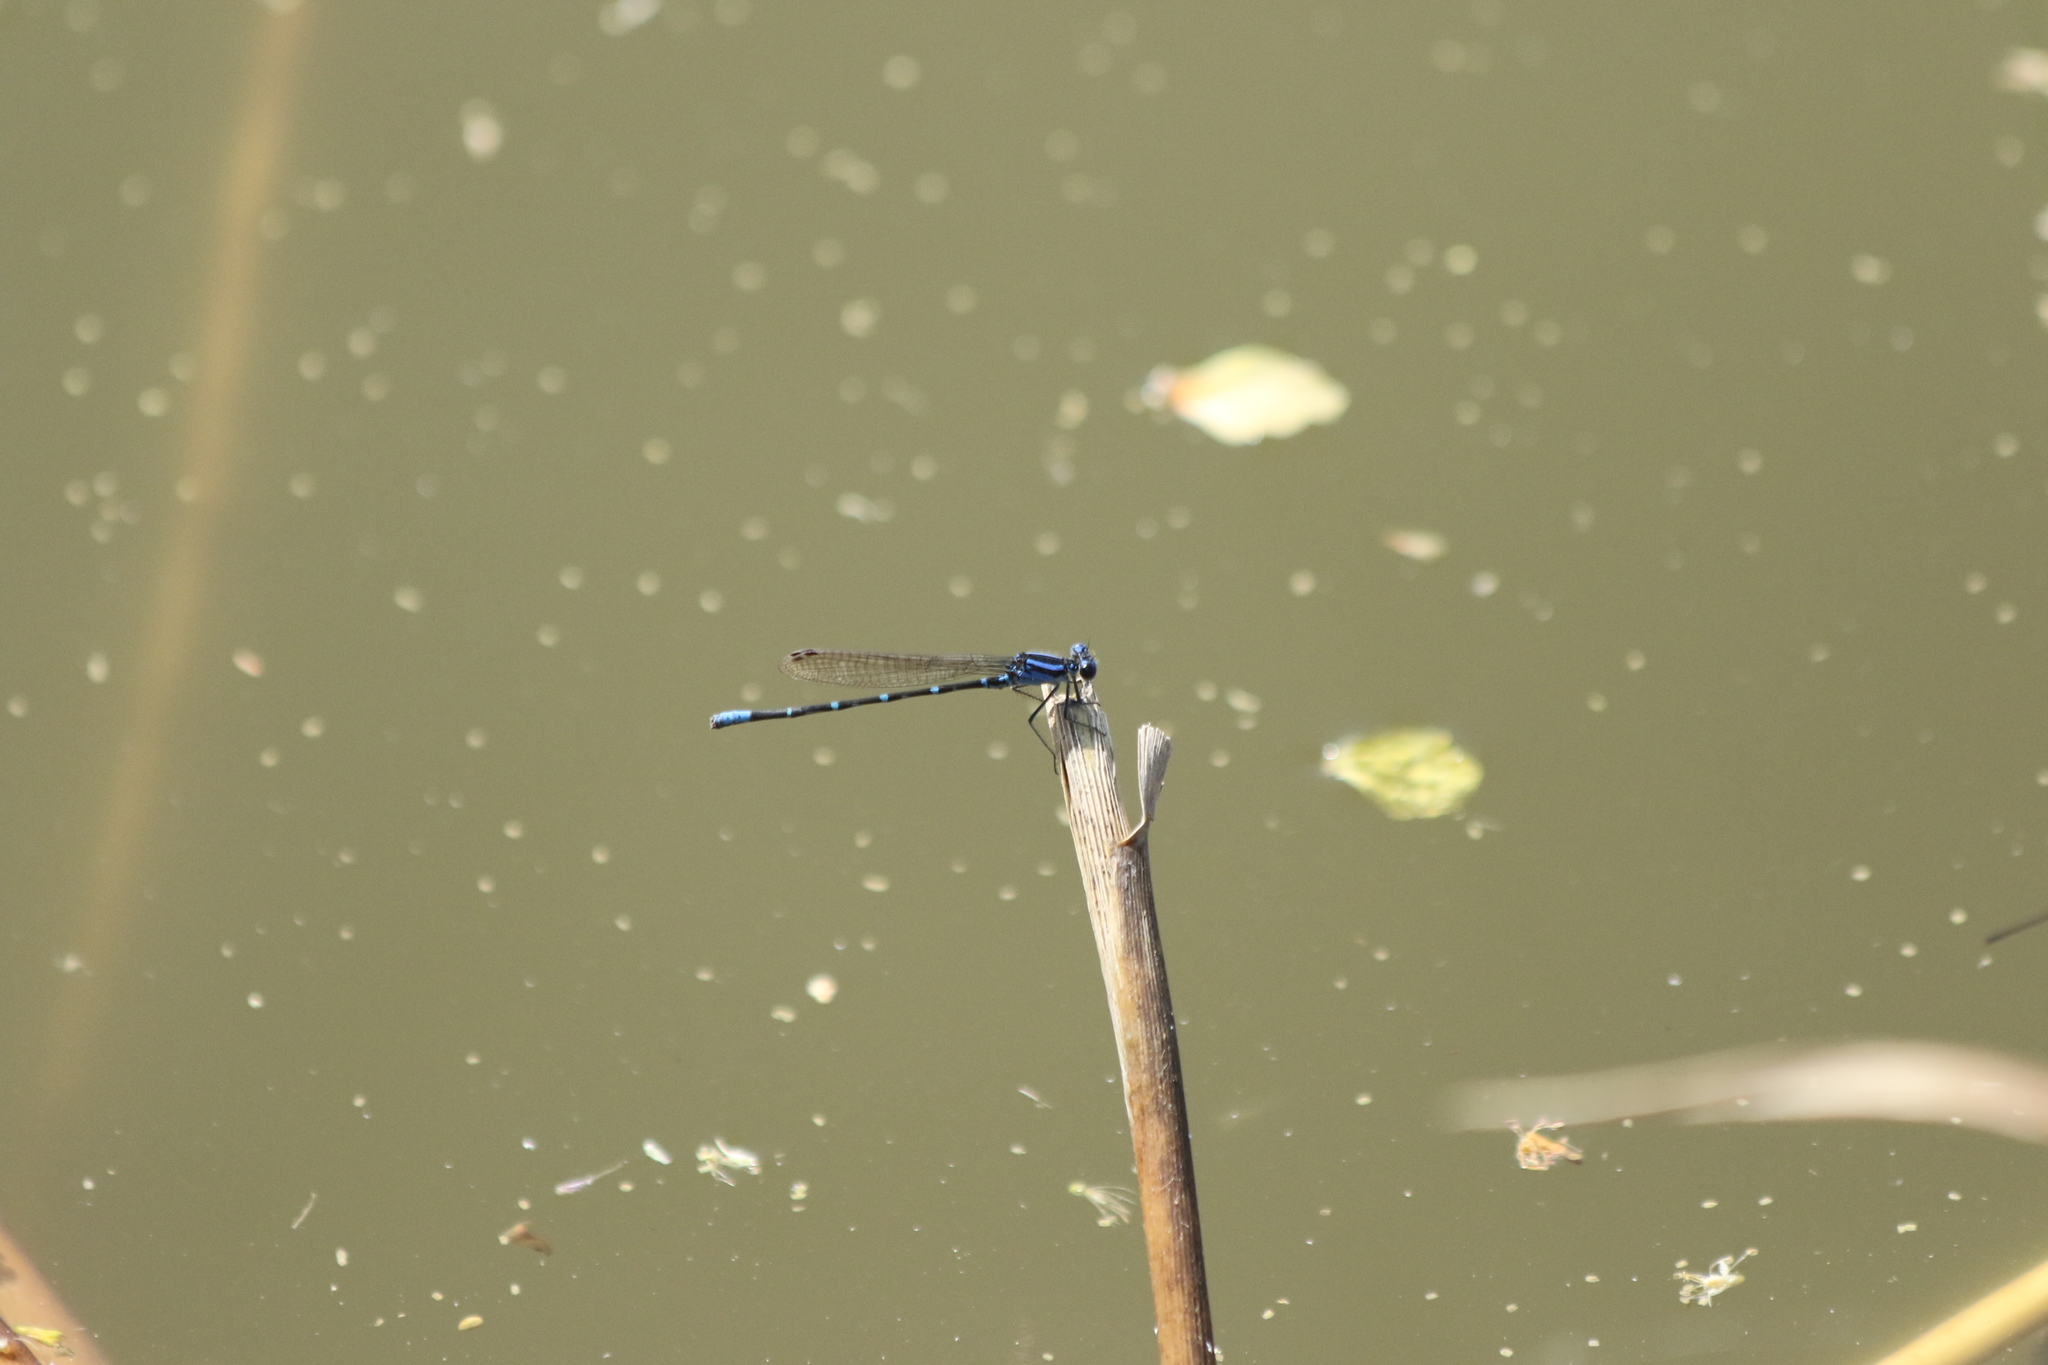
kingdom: Animalia
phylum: Arthropoda
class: Insecta
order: Odonata
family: Coenagrionidae
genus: Argia
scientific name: Argia sedula
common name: Blue-ringed dancer
